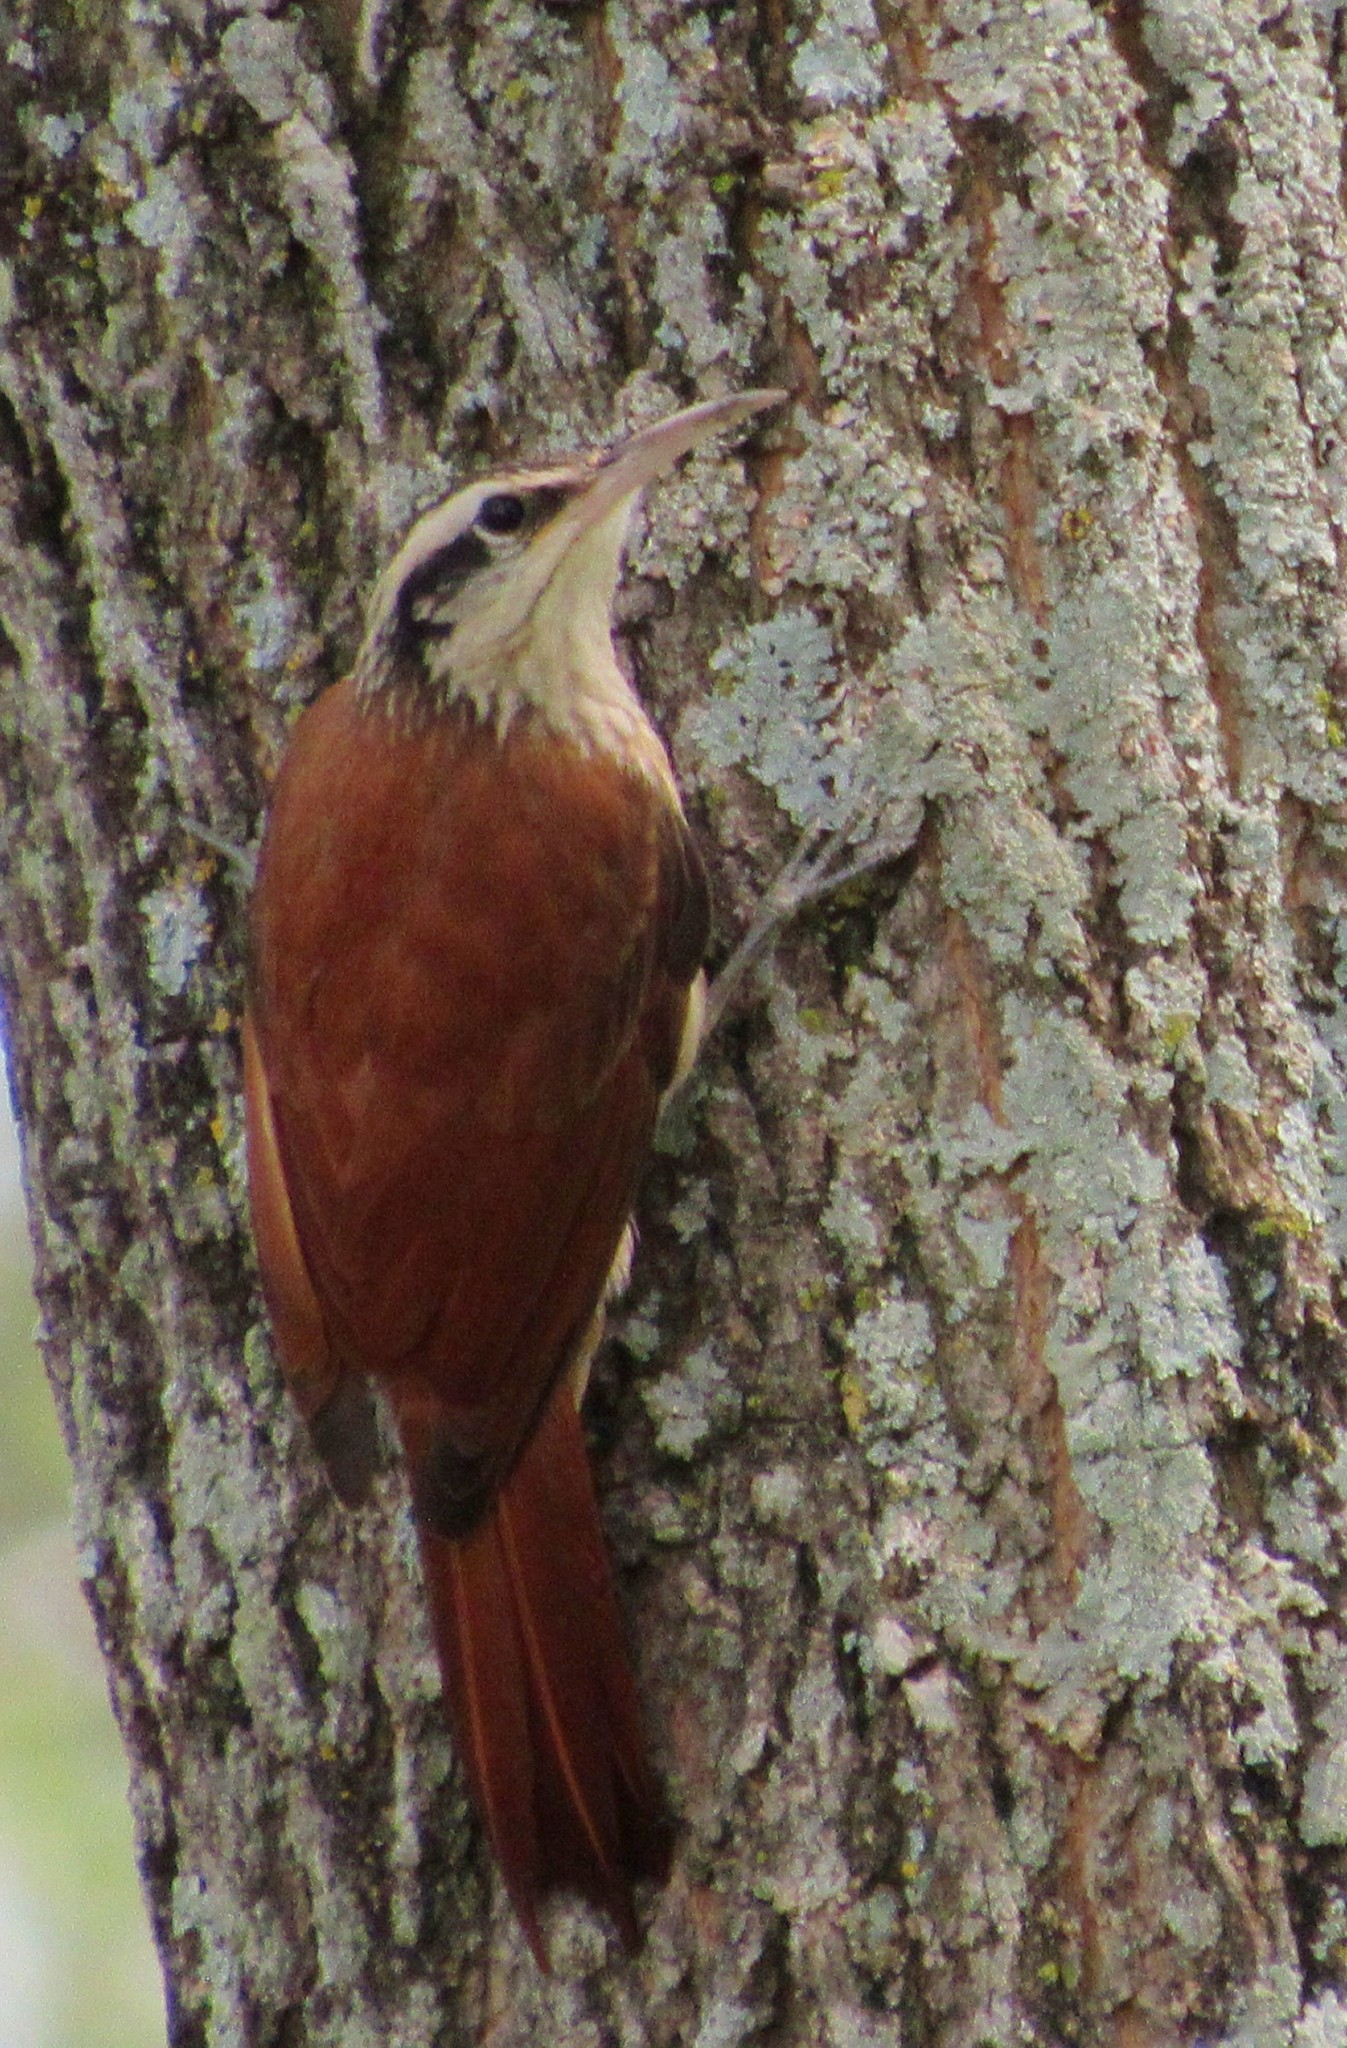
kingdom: Animalia
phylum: Chordata
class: Aves
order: Passeriformes
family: Furnariidae
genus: Lepidocolaptes
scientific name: Lepidocolaptes angustirostris
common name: Narrow-billed woodcreeper
